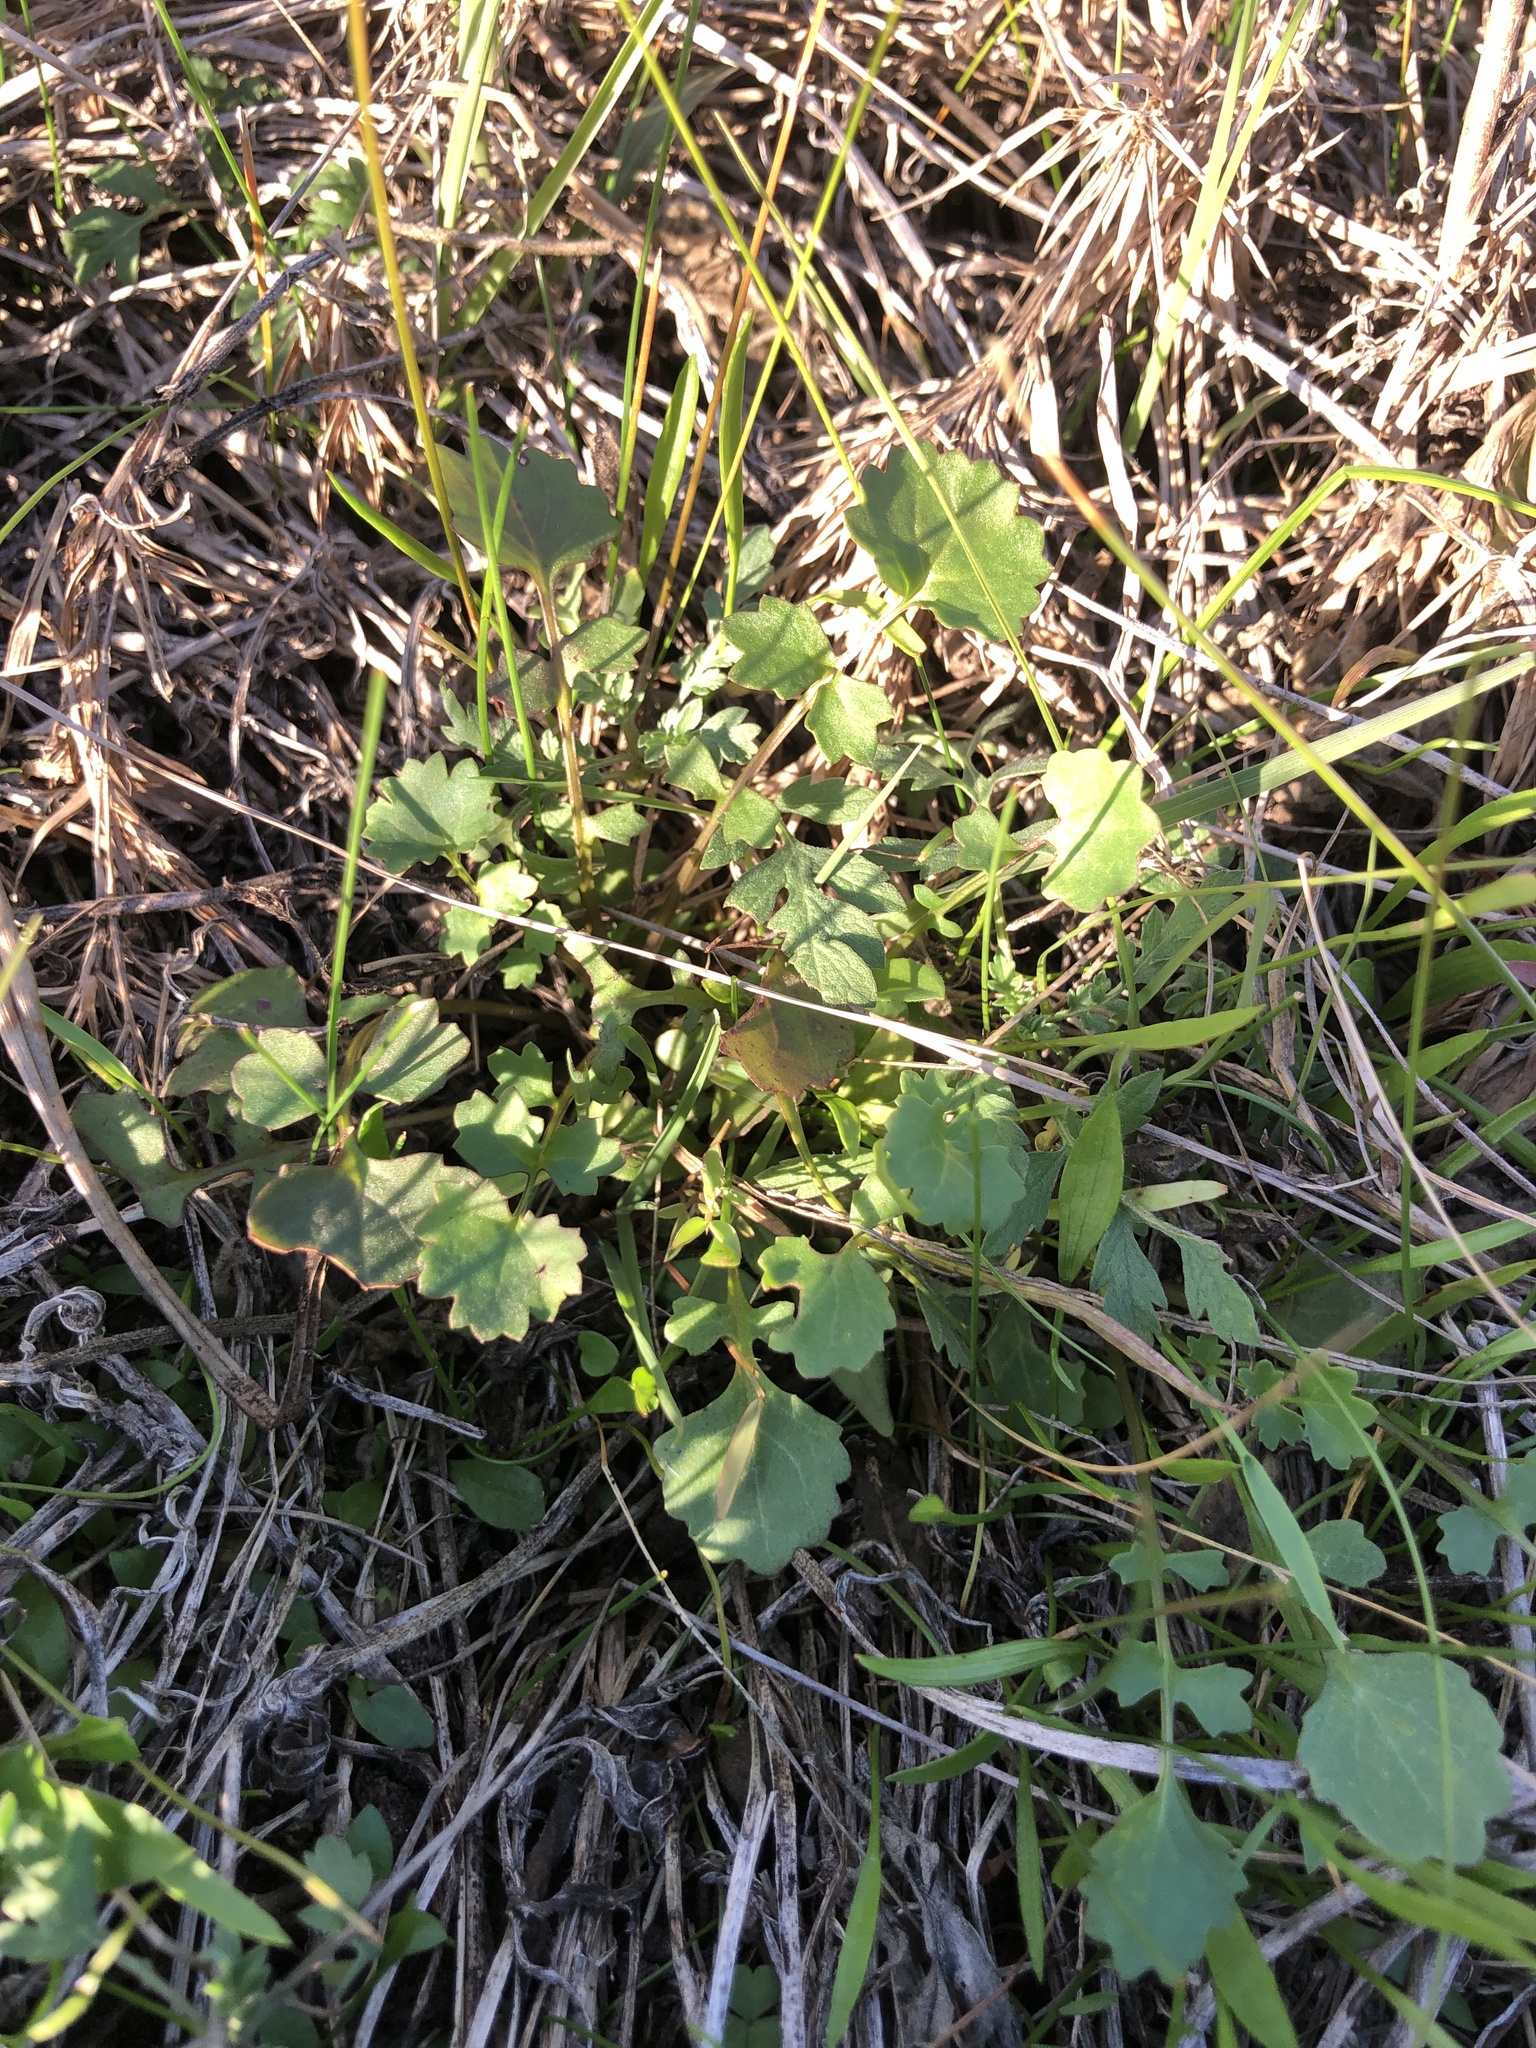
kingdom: Plantae
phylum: Tracheophyta
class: Magnoliopsida
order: Asterales
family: Asteraceae
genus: Packera
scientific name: Packera glabella
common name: Butterweed
